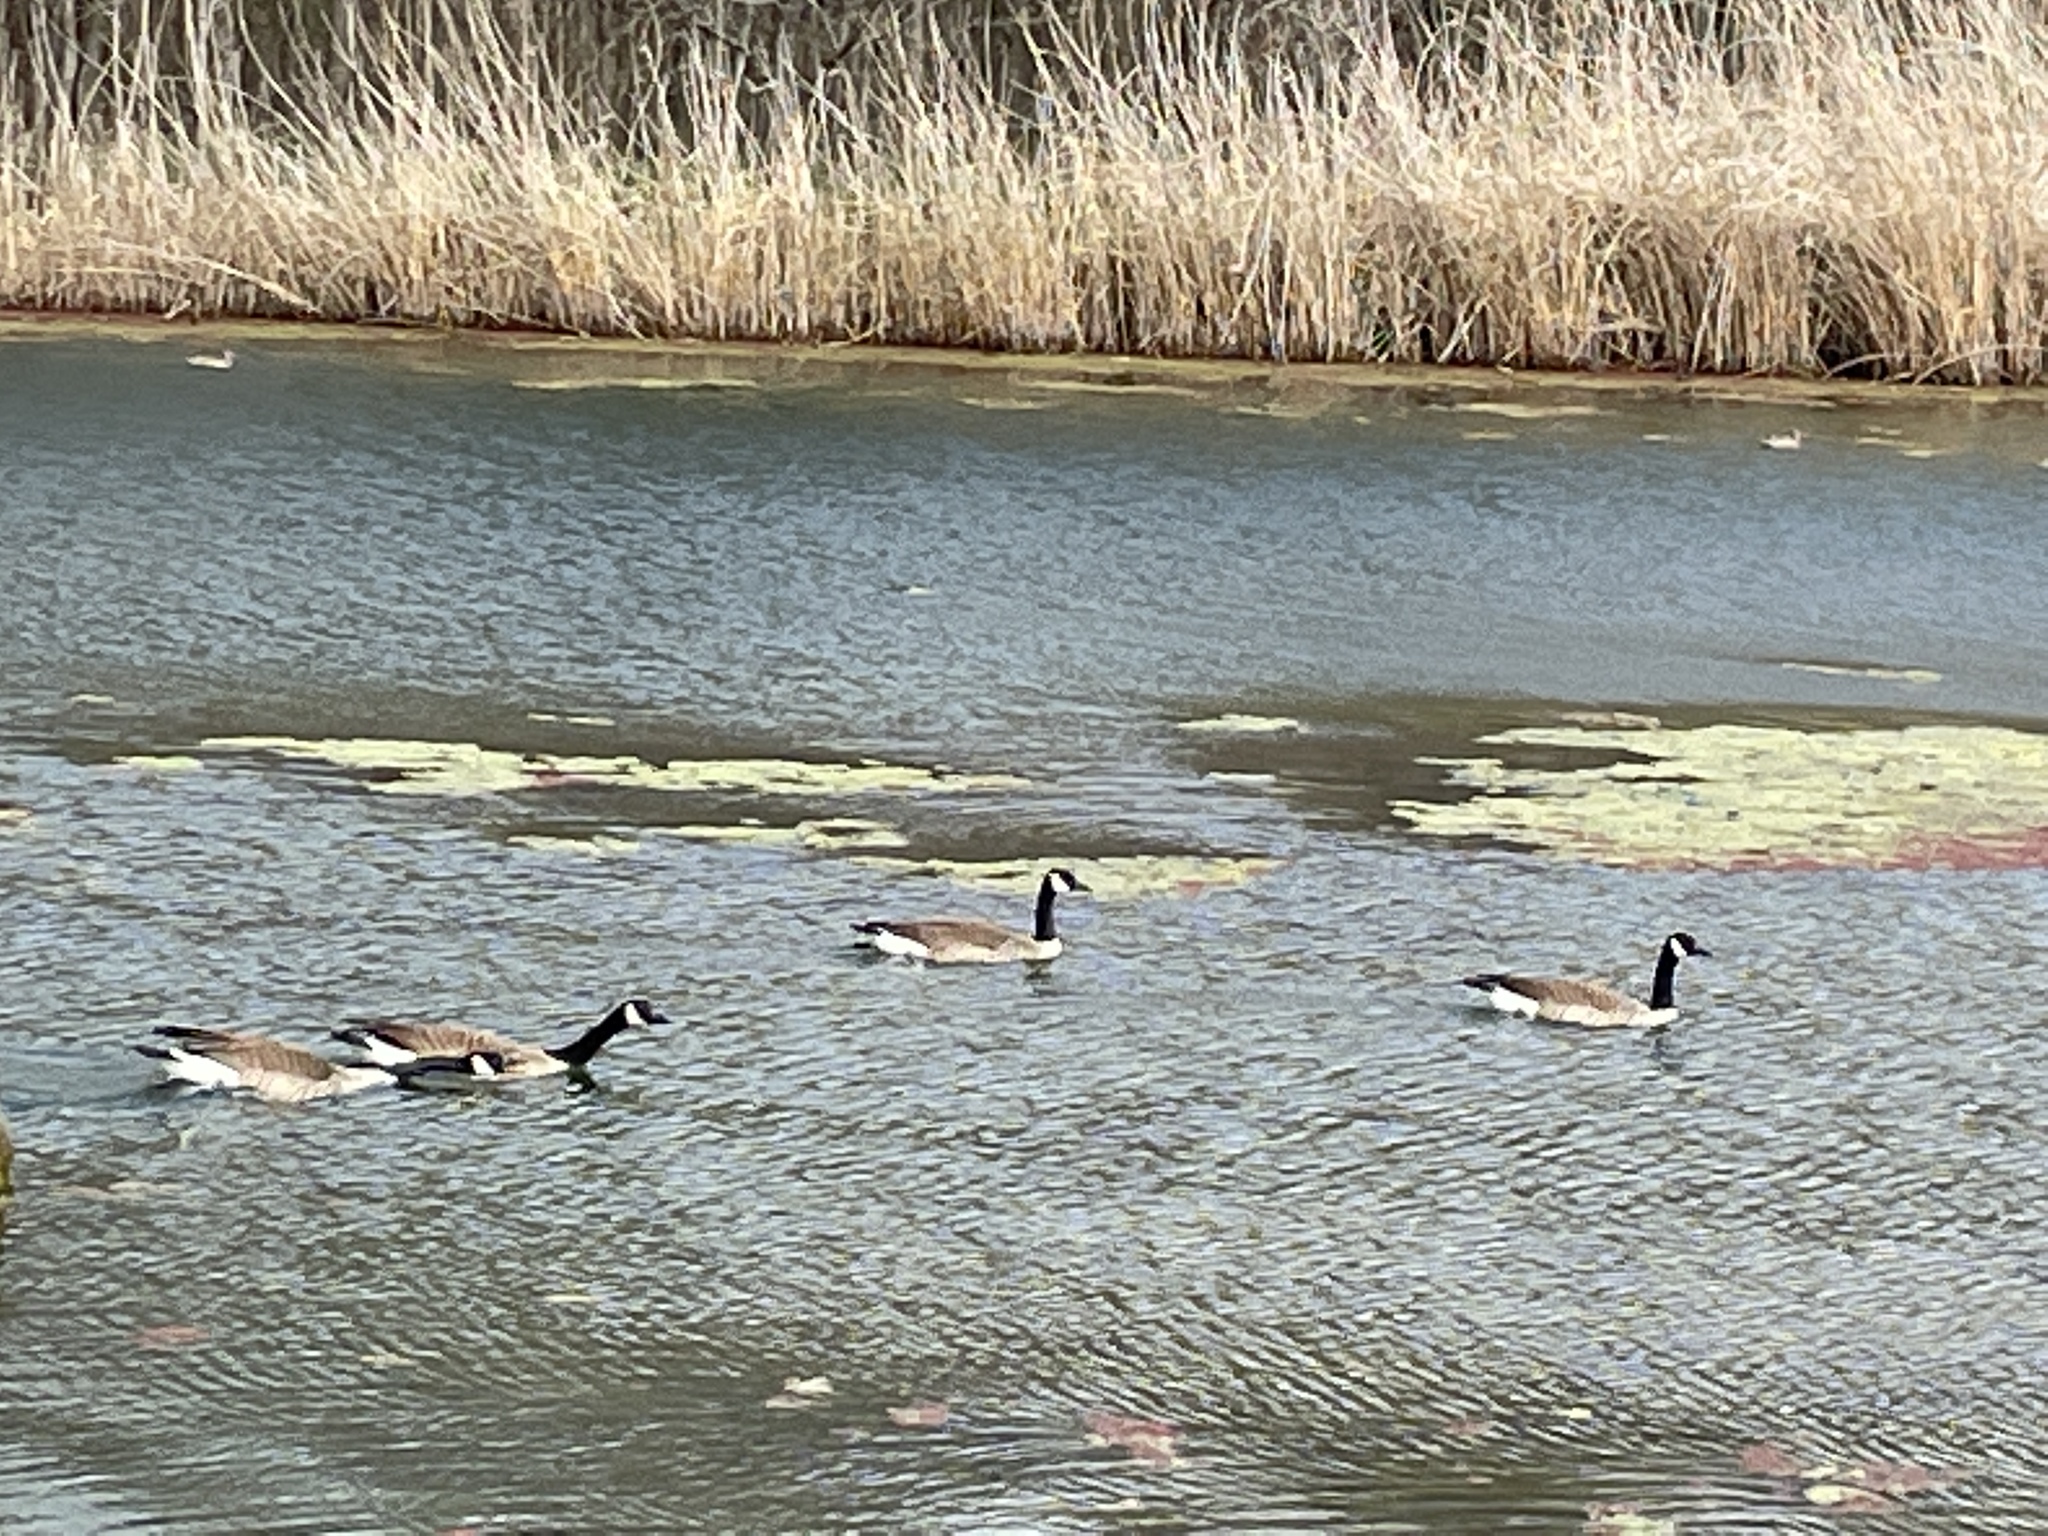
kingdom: Animalia
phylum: Chordata
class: Aves
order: Anseriformes
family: Anatidae
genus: Branta
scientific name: Branta canadensis
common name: Canada goose
